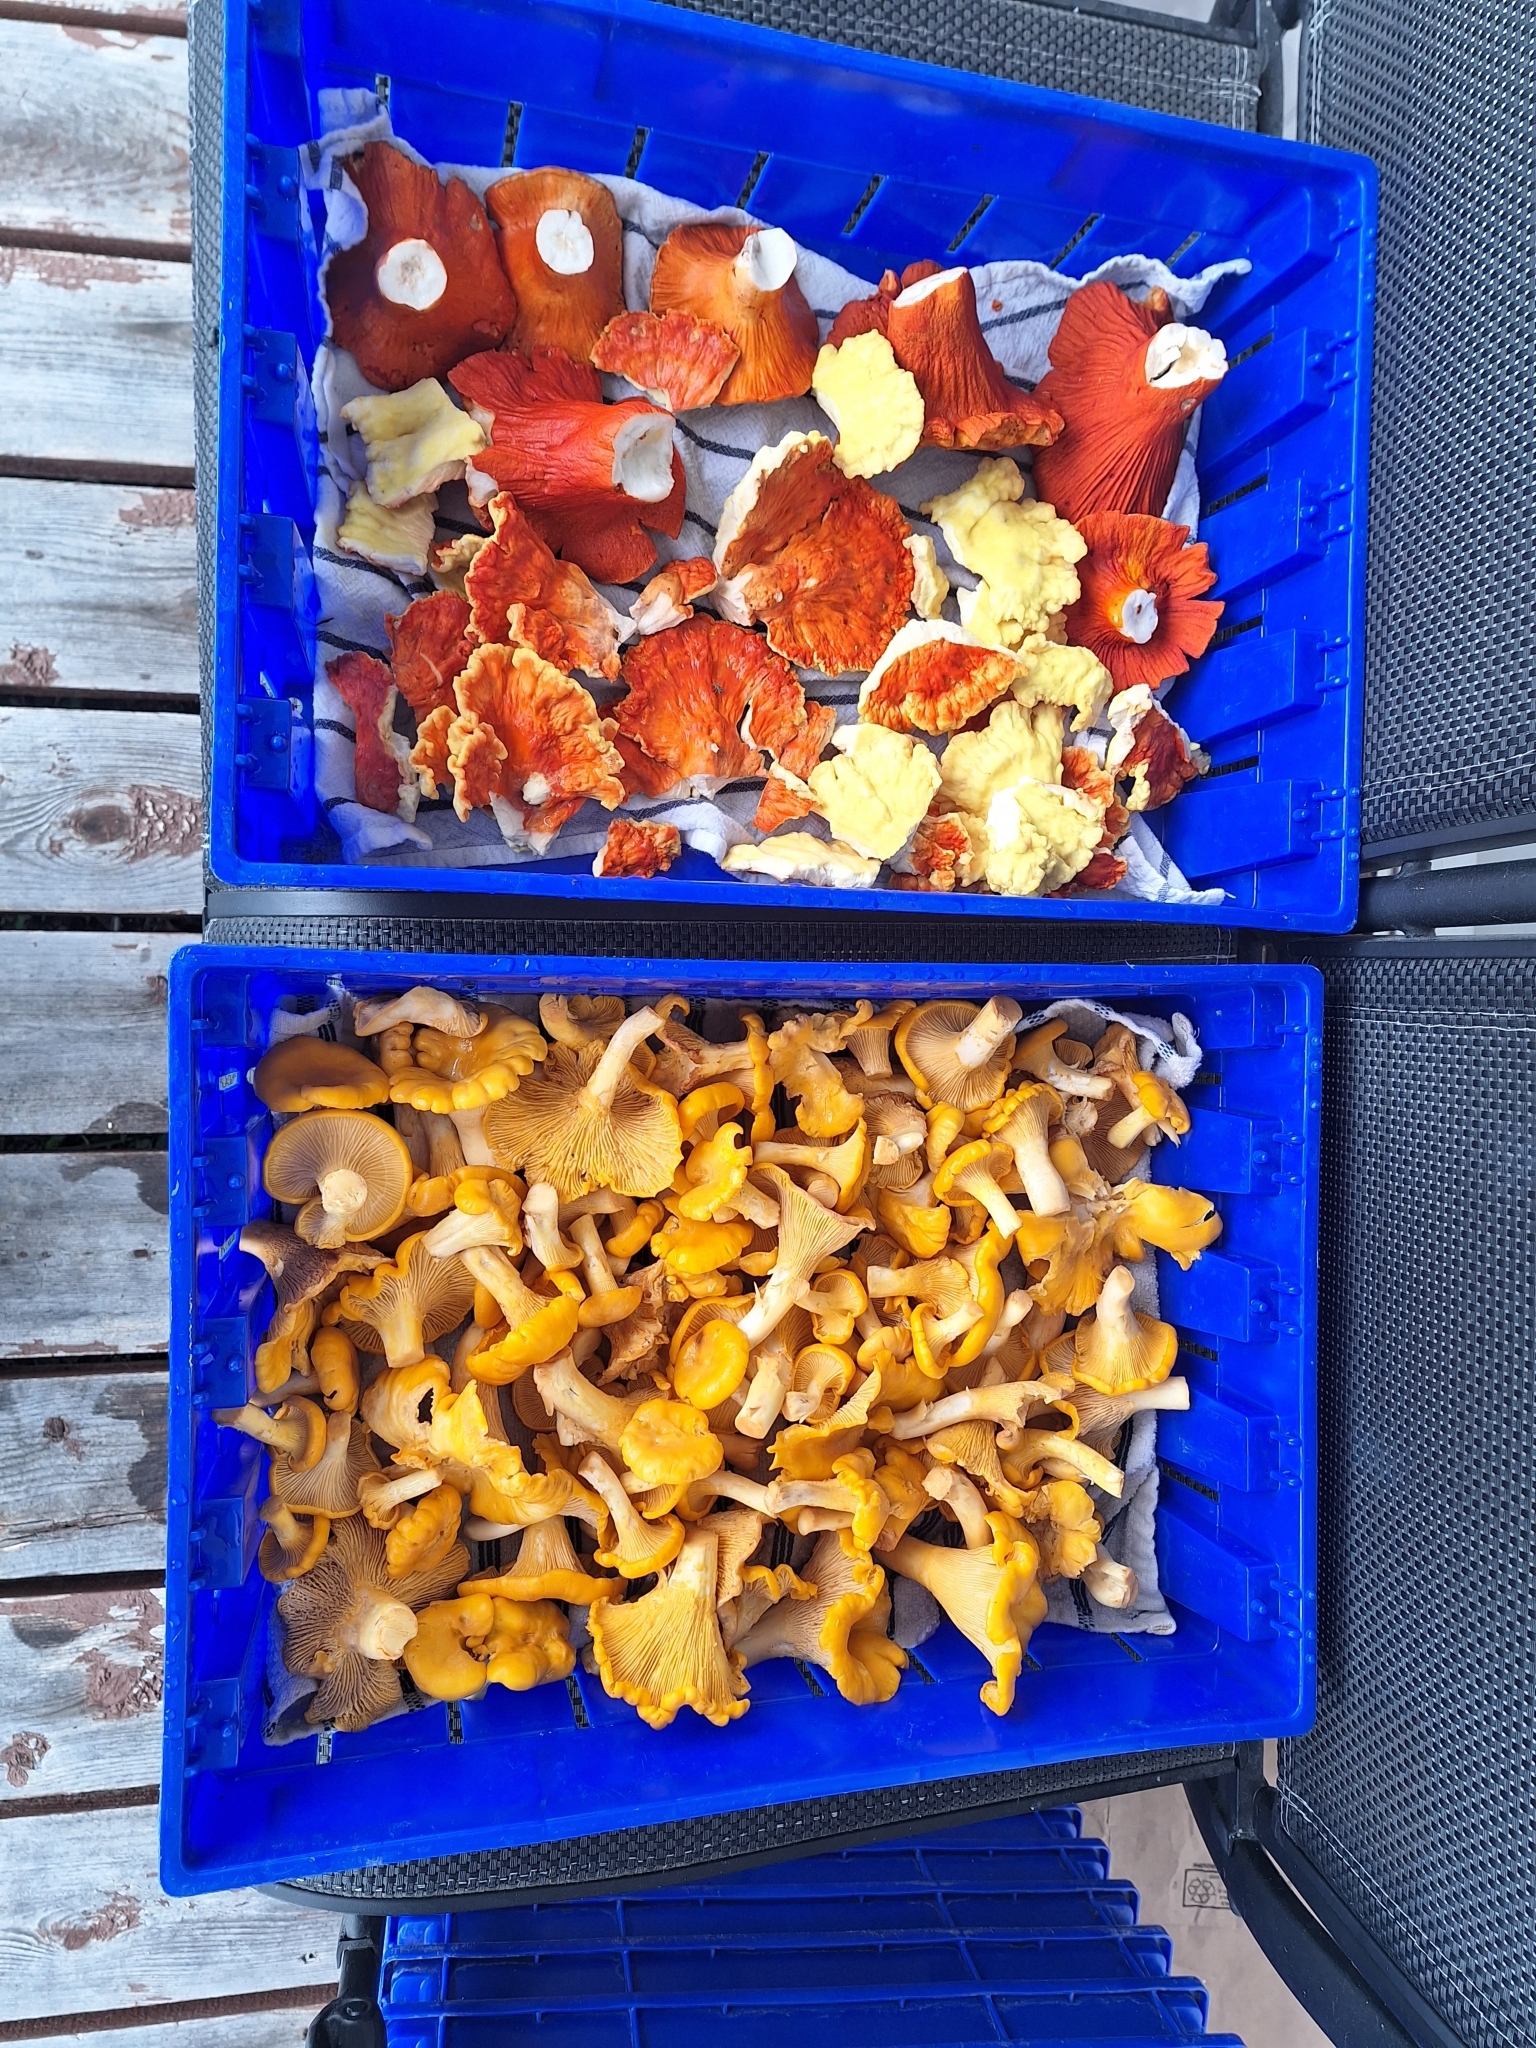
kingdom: Fungi
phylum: Basidiomycota
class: Agaricomycetes
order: Polyporales
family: Laetiporaceae
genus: Laetiporus
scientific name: Laetiporus sulphureus
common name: Chicken of the woods
